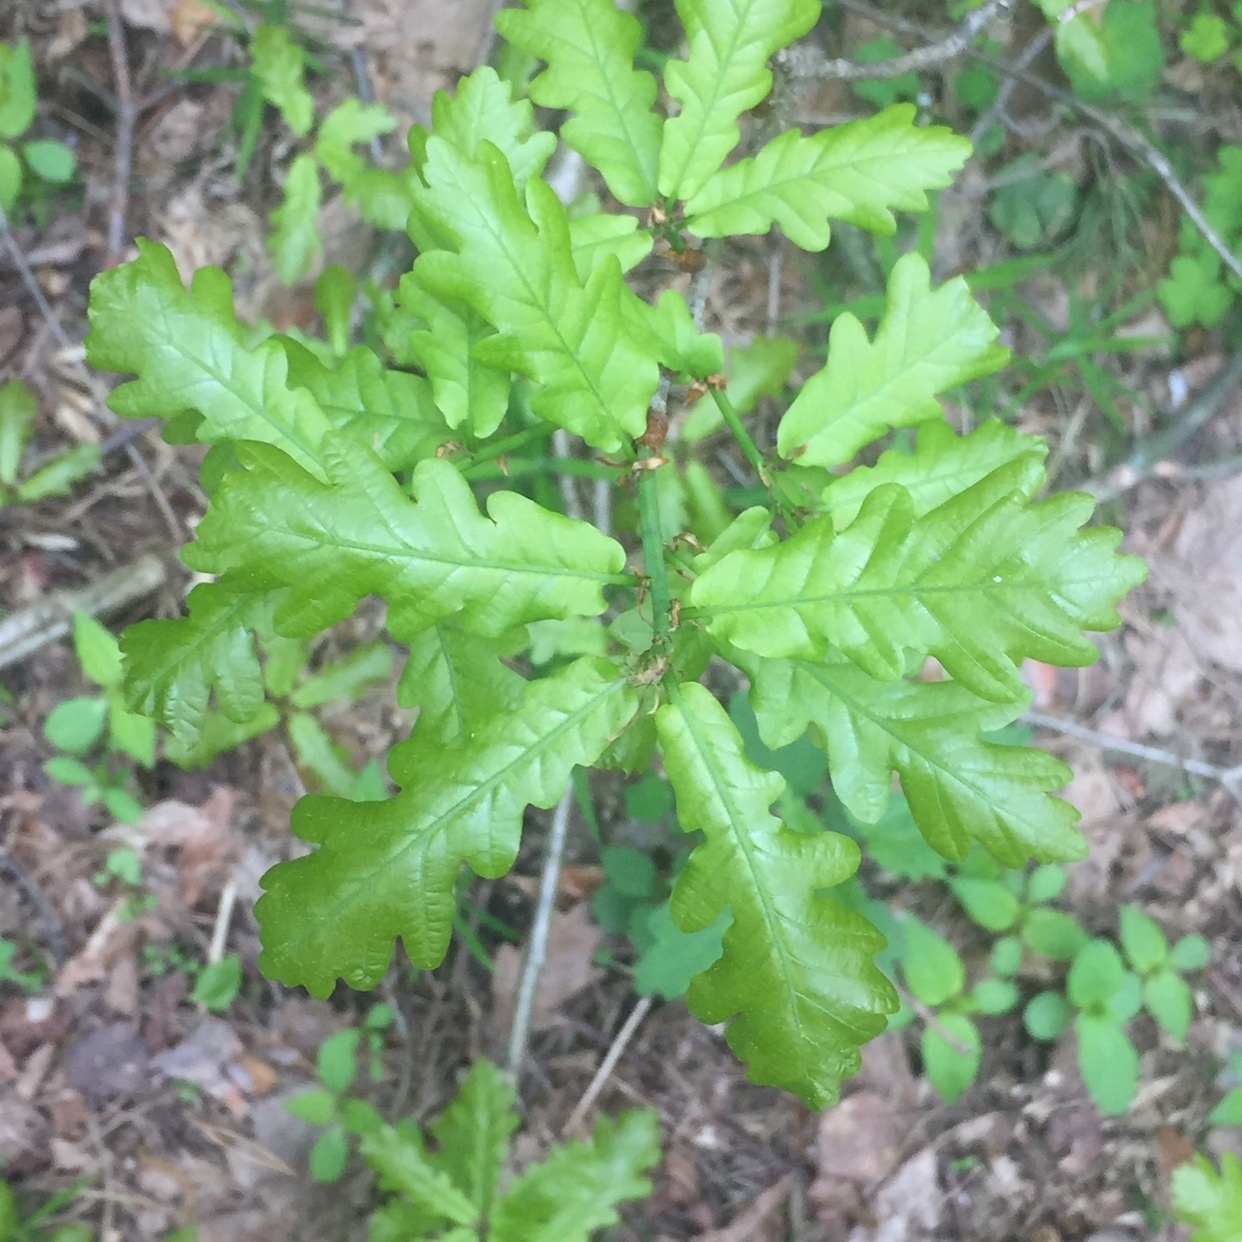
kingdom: Plantae
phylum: Tracheophyta
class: Magnoliopsida
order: Fagales
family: Fagaceae
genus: Quercus
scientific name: Quercus robur
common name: Pedunculate oak
